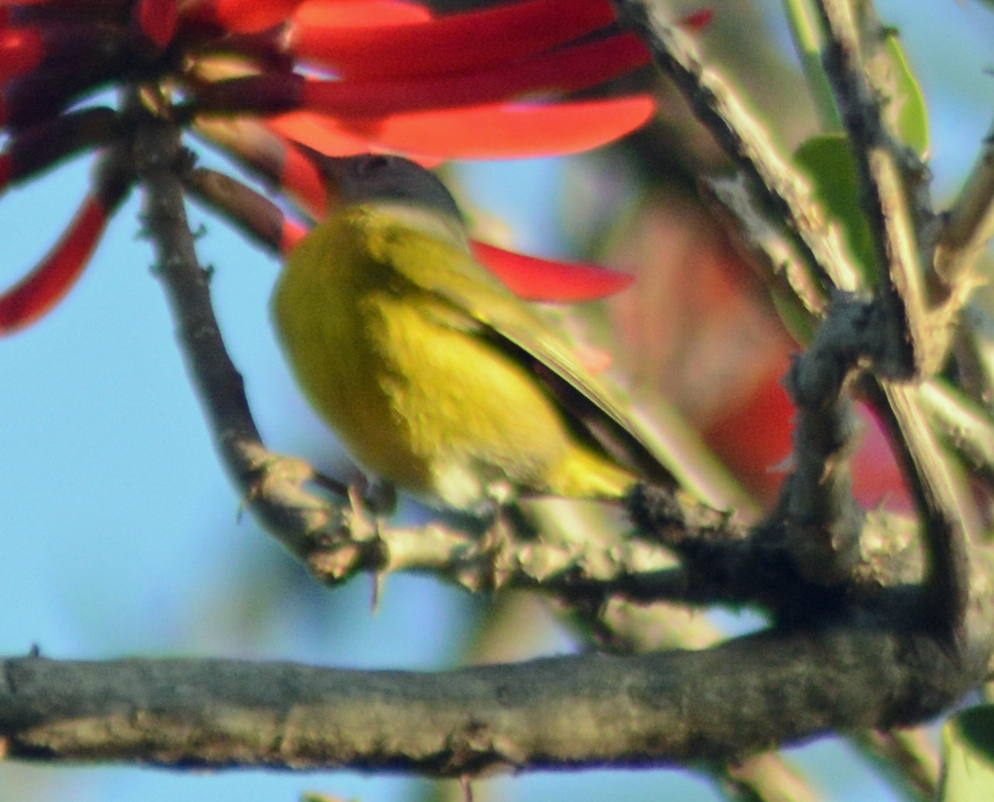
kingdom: Animalia
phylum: Chordata
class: Aves
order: Passeriformes
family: Parulidae
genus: Leiothlypis
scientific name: Leiothlypis ruficapilla
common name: Nashville warbler
